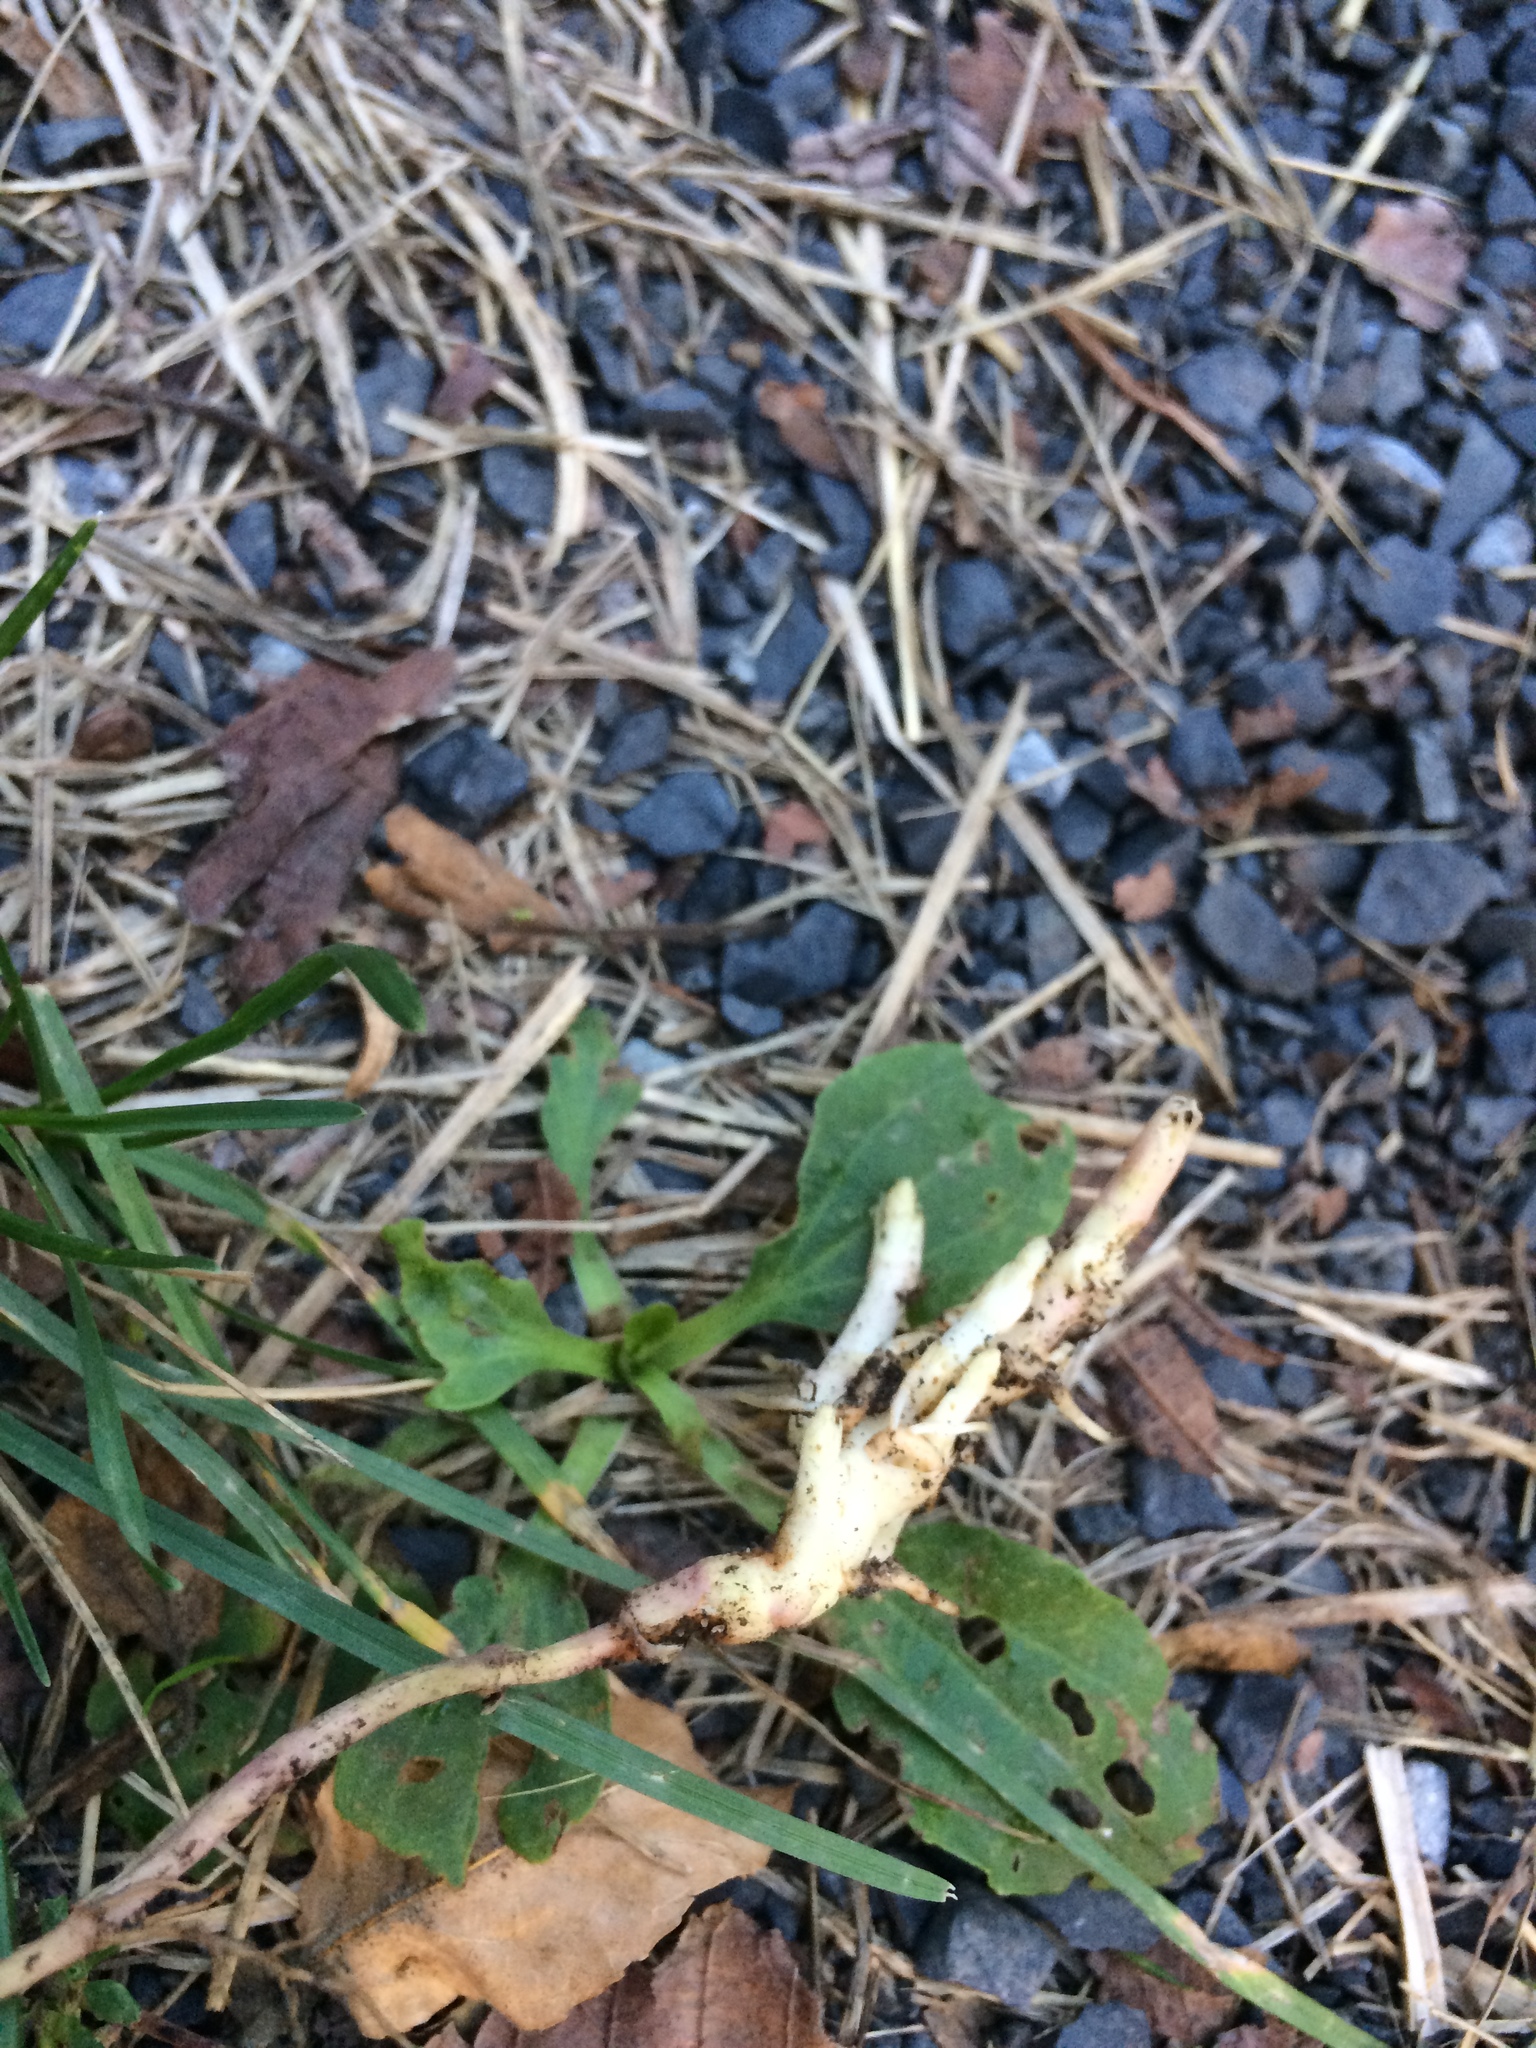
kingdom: Plantae
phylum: Tracheophyta
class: Magnoliopsida
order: Lamiales
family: Lamiaceae
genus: Lycopus
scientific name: Lycopus americanus
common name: American bugleweed
